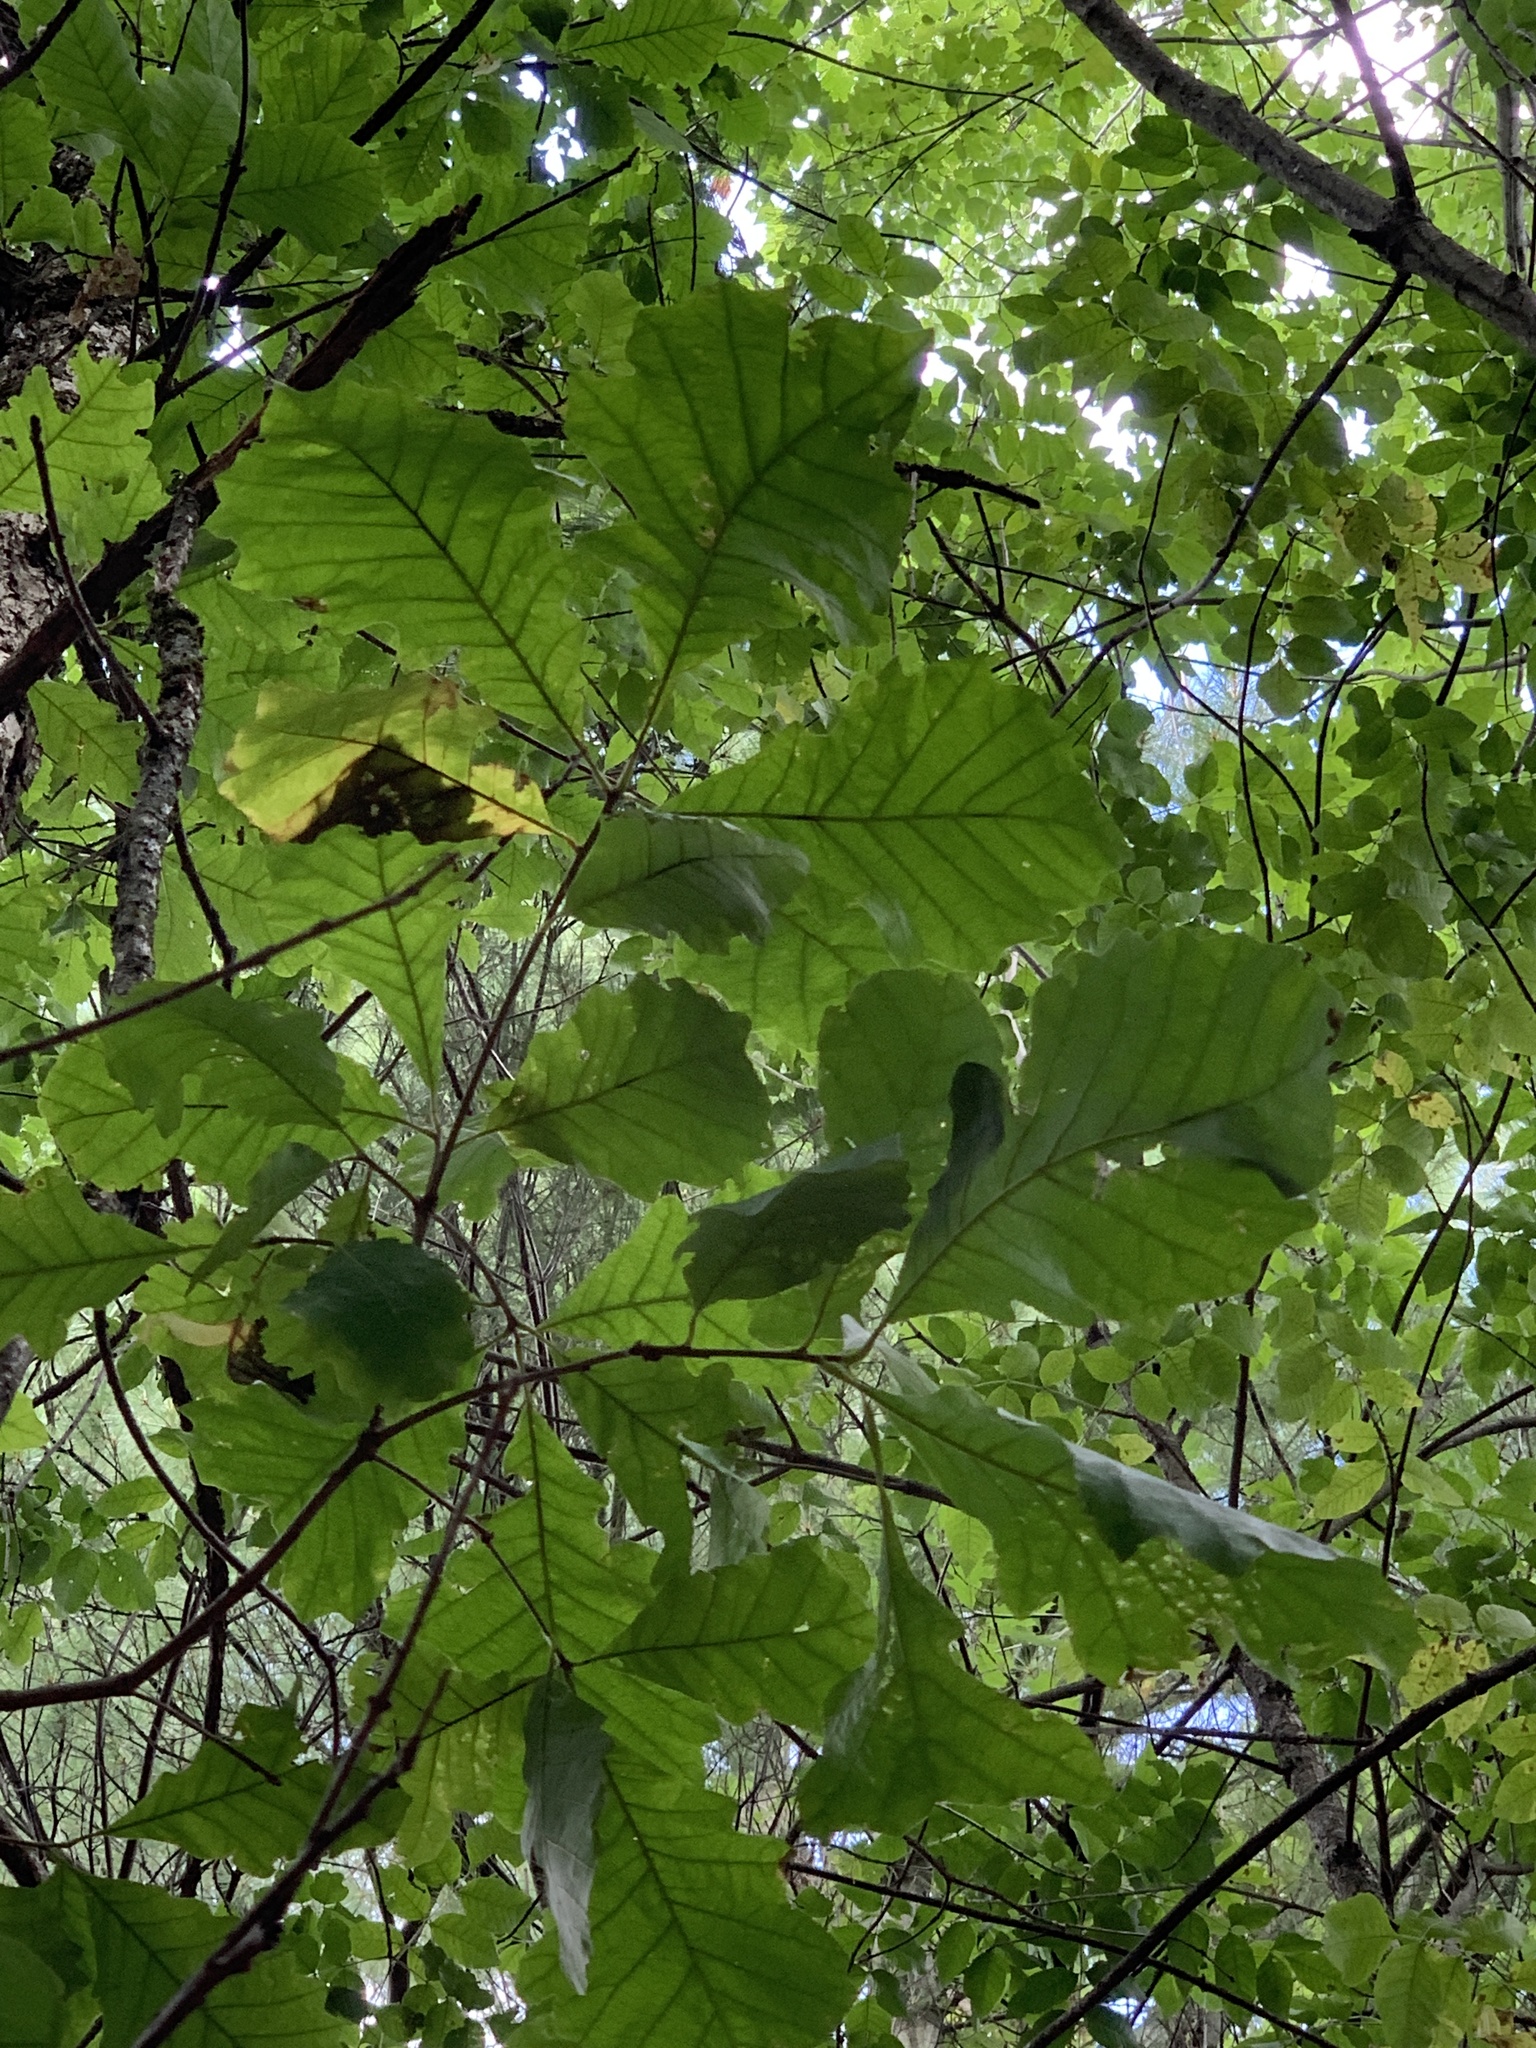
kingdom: Plantae
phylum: Tracheophyta
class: Magnoliopsida
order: Fagales
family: Fagaceae
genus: Quercus
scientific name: Quercus bicolor
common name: Swamp white oak
